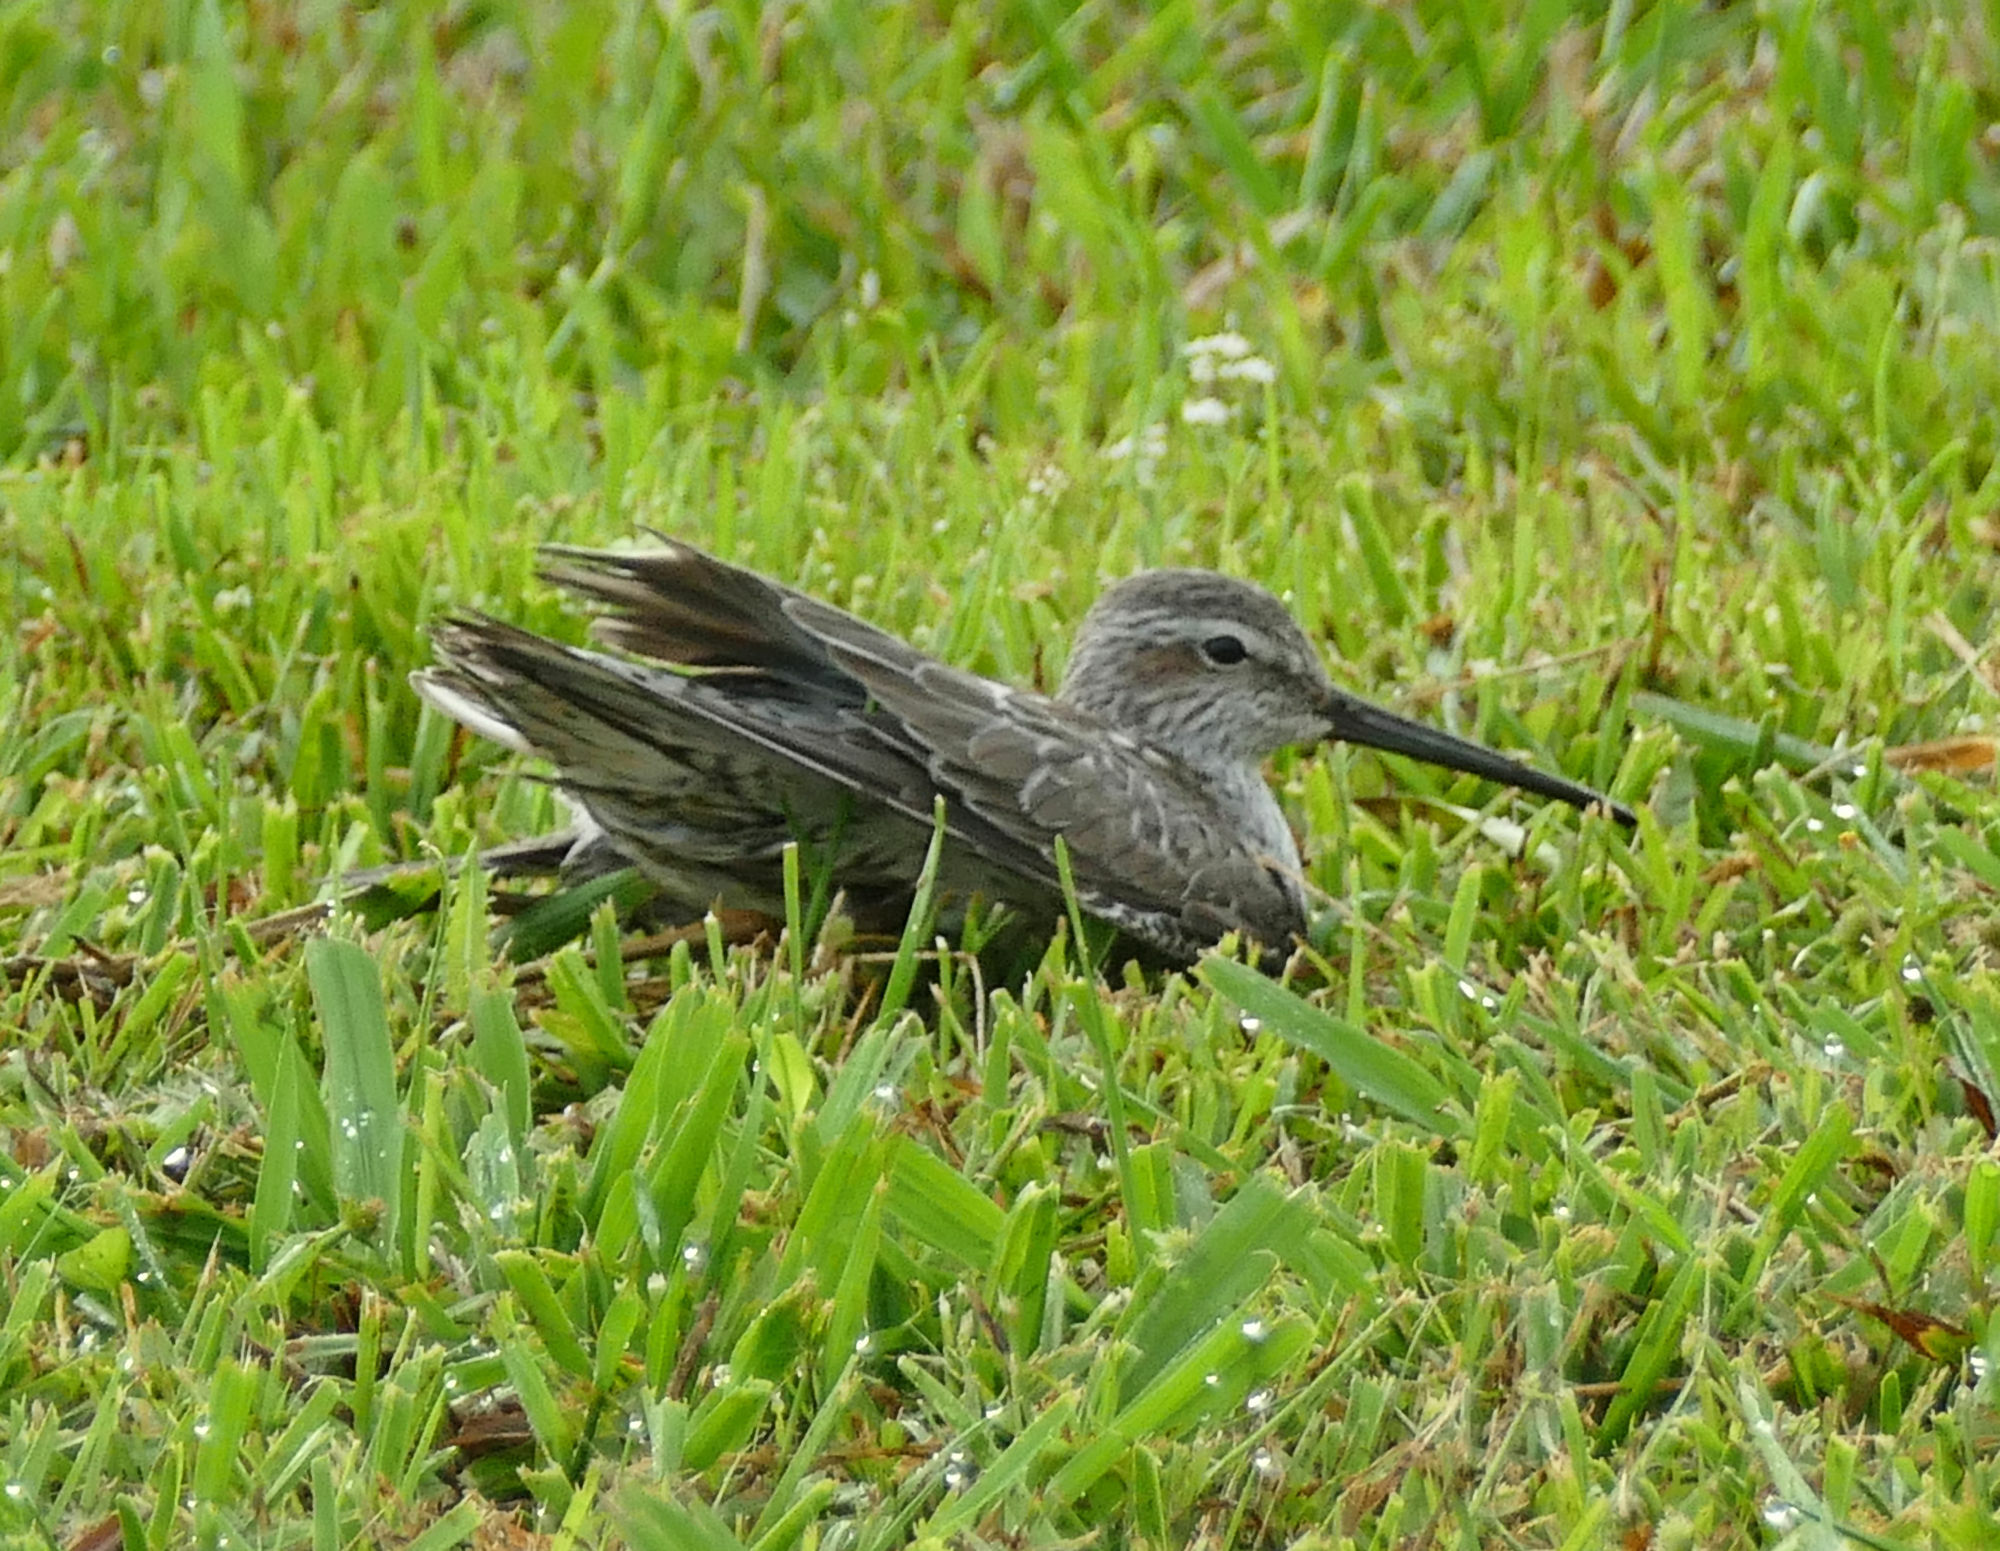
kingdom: Animalia
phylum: Chordata
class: Aves
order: Charadriiformes
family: Scolopacidae
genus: Calidris
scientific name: Calidris himantopus
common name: Stilt sandpiper
